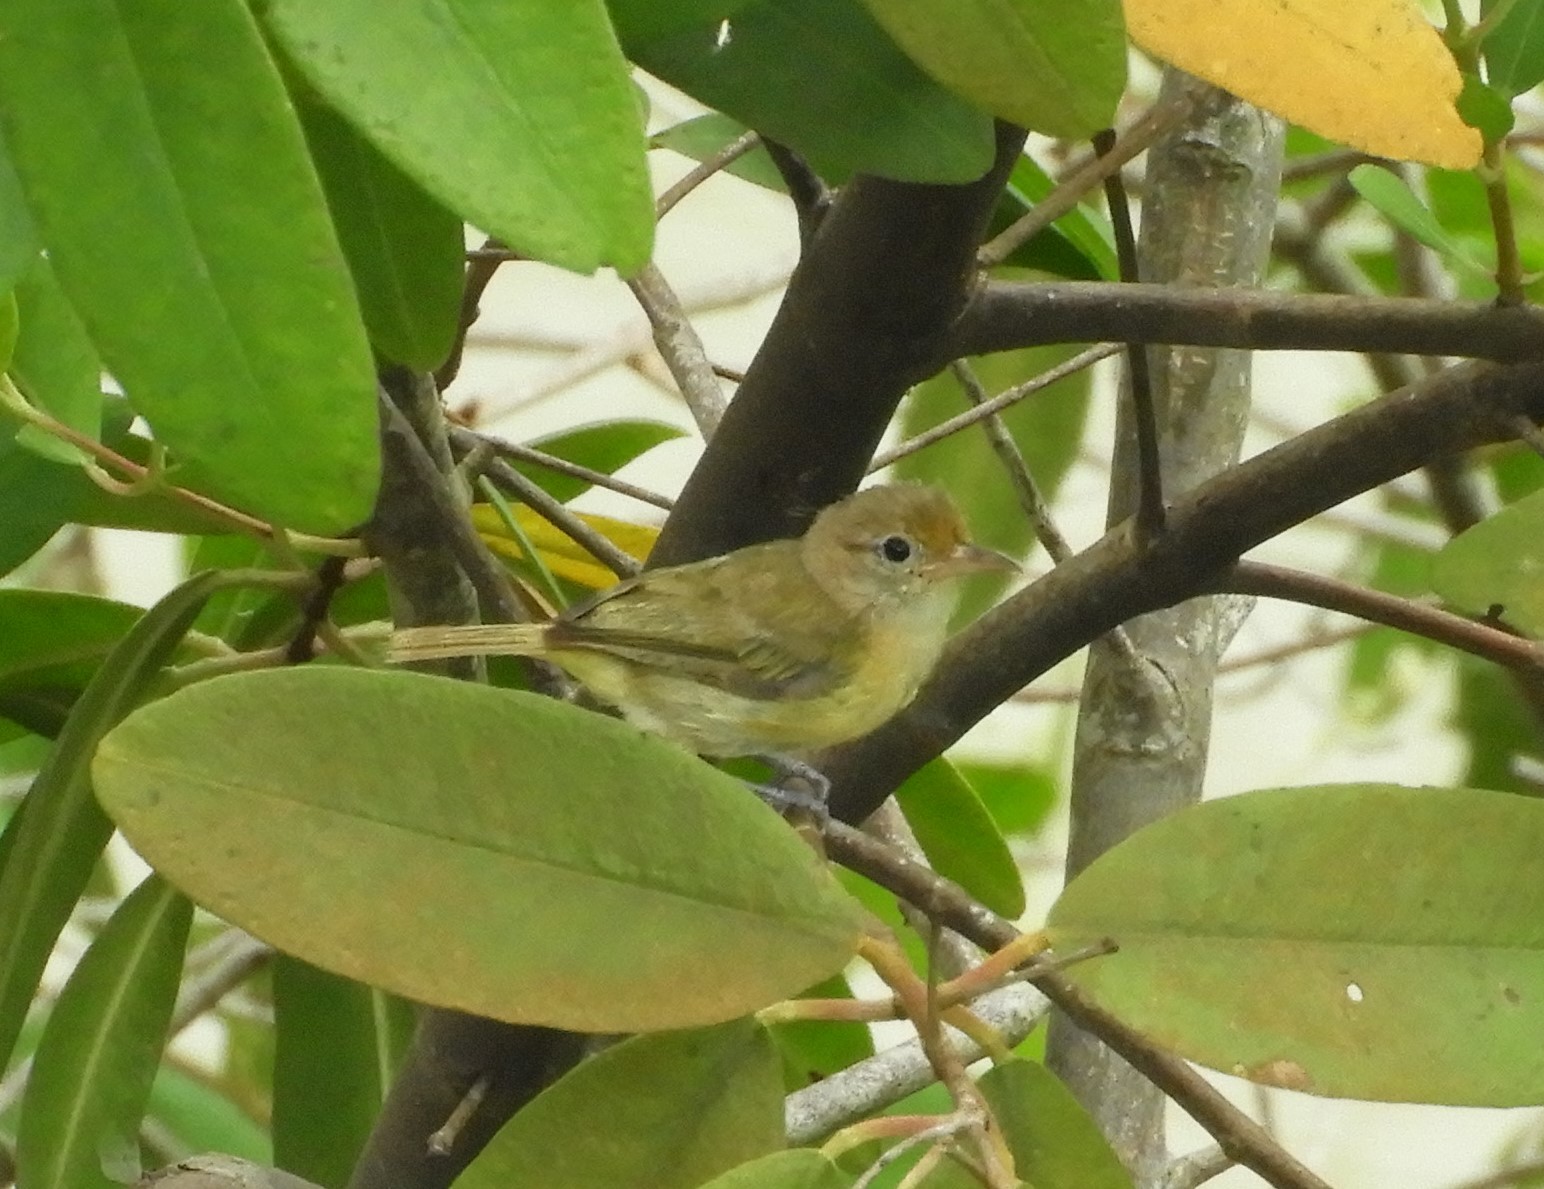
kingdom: Animalia
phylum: Chordata
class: Aves
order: Passeriformes
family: Vireonidae
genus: Hylophilus
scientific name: Hylophilus aurantiifrons
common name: Golden-fronted greenlet
